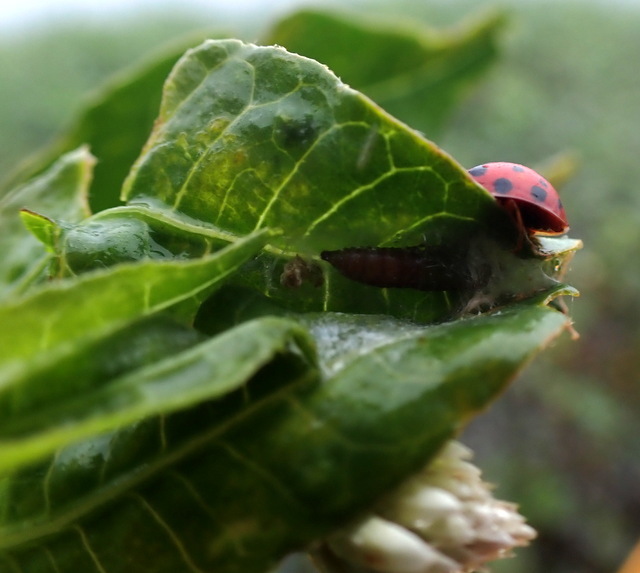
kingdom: Animalia
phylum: Arthropoda
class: Insecta
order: Lepidoptera
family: Crambidae
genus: Herpetogramma
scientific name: Herpetogramma bipunctalis
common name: Southern beet webworm
